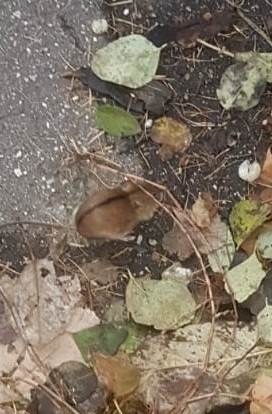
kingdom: Animalia
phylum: Chordata
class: Mammalia
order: Rodentia
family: Muridae
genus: Apodemus
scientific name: Apodemus agrarius
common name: Striped field mouse
